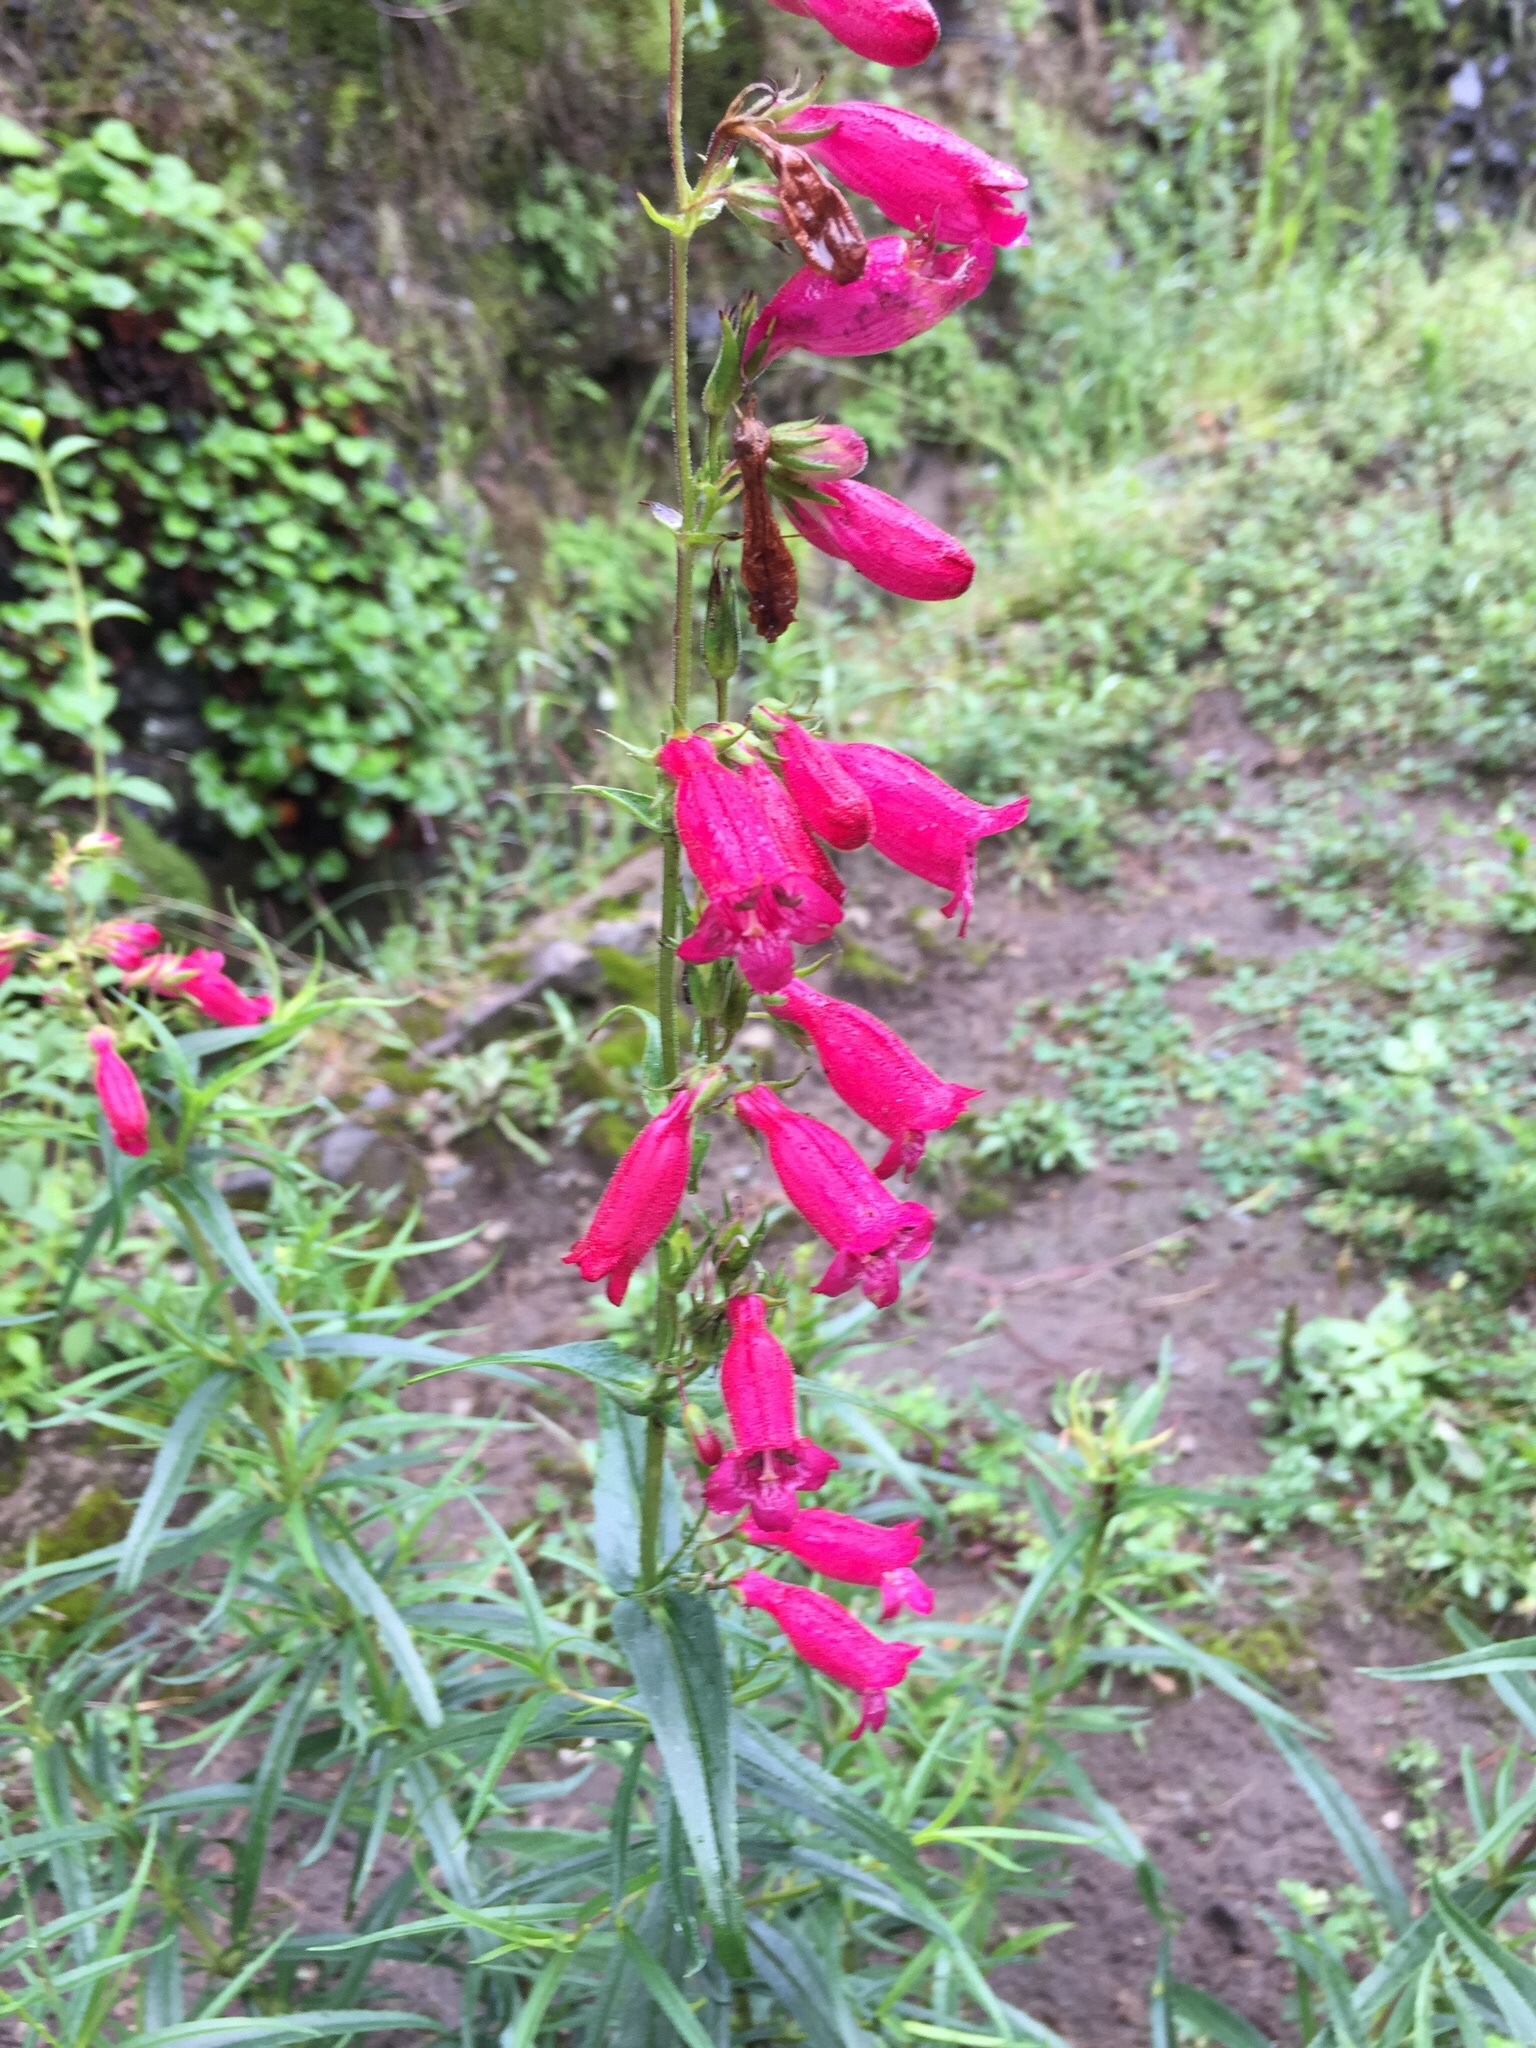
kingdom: Plantae
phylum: Tracheophyta
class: Magnoliopsida
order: Lamiales
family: Plantaginaceae
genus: Penstemon
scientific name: Penstemon roseus
